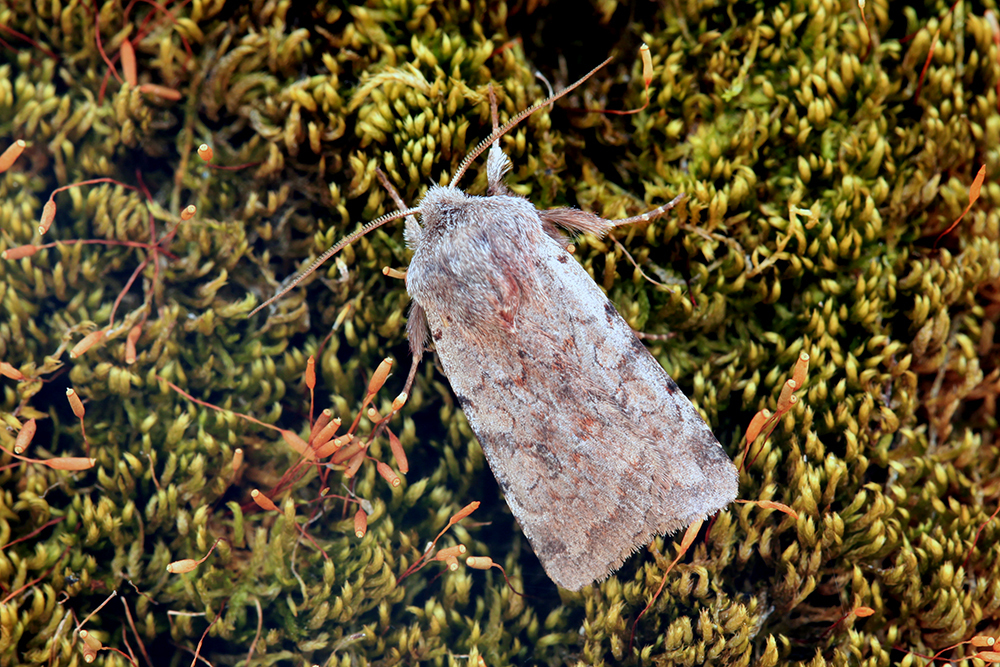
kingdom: Animalia
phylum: Arthropoda
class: Insecta
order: Lepidoptera
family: Noctuidae
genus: Cerastis
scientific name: Cerastis rubricosa
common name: Red chestnut
